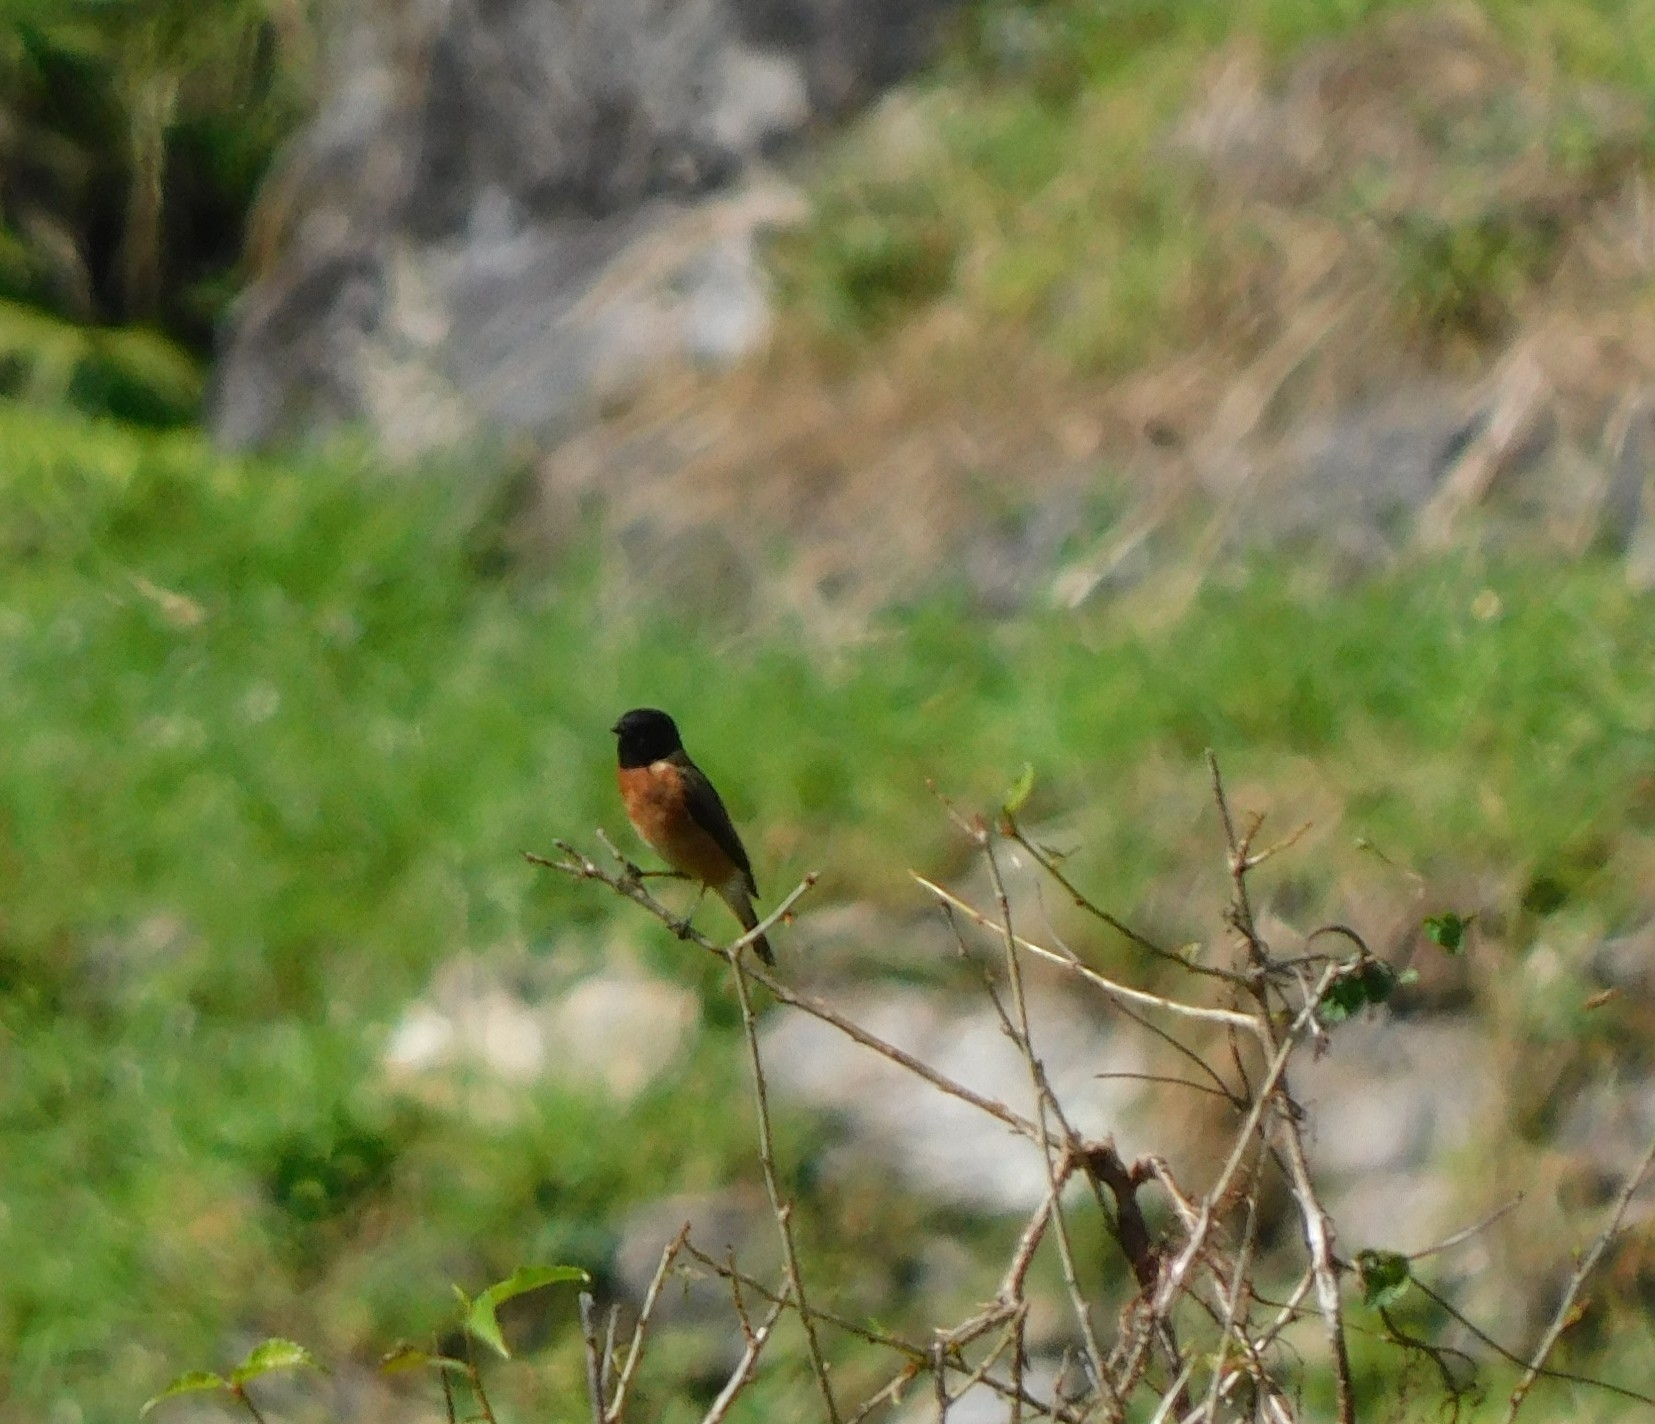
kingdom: Animalia
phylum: Chordata
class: Aves
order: Passeriformes
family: Muscicapidae
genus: Saxicola
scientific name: Saxicola maurus
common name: Siberian stonechat
